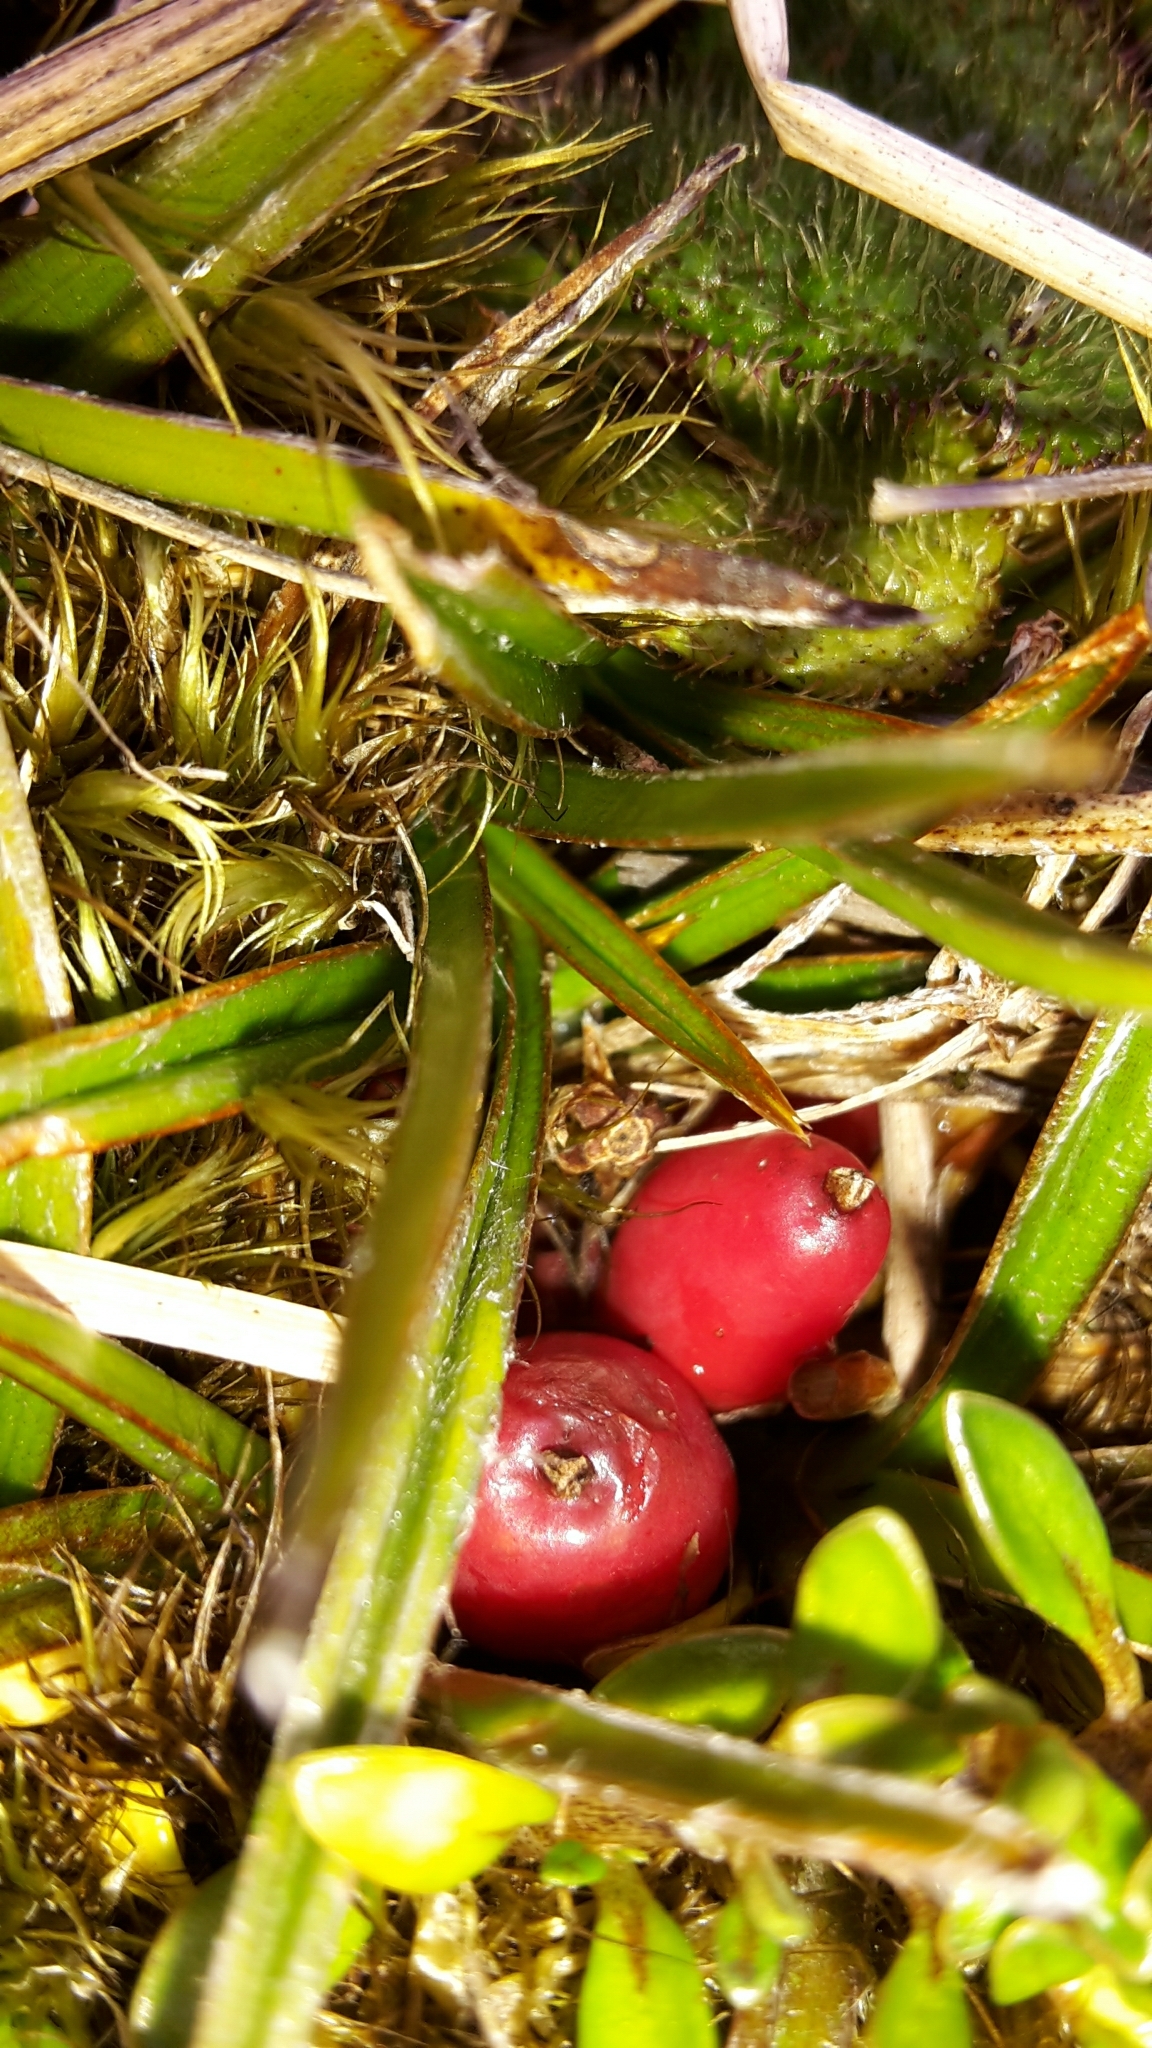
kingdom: Plantae
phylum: Tracheophyta
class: Liliopsida
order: Asparagales
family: Asteliaceae
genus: Astelia
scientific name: Astelia linearis
